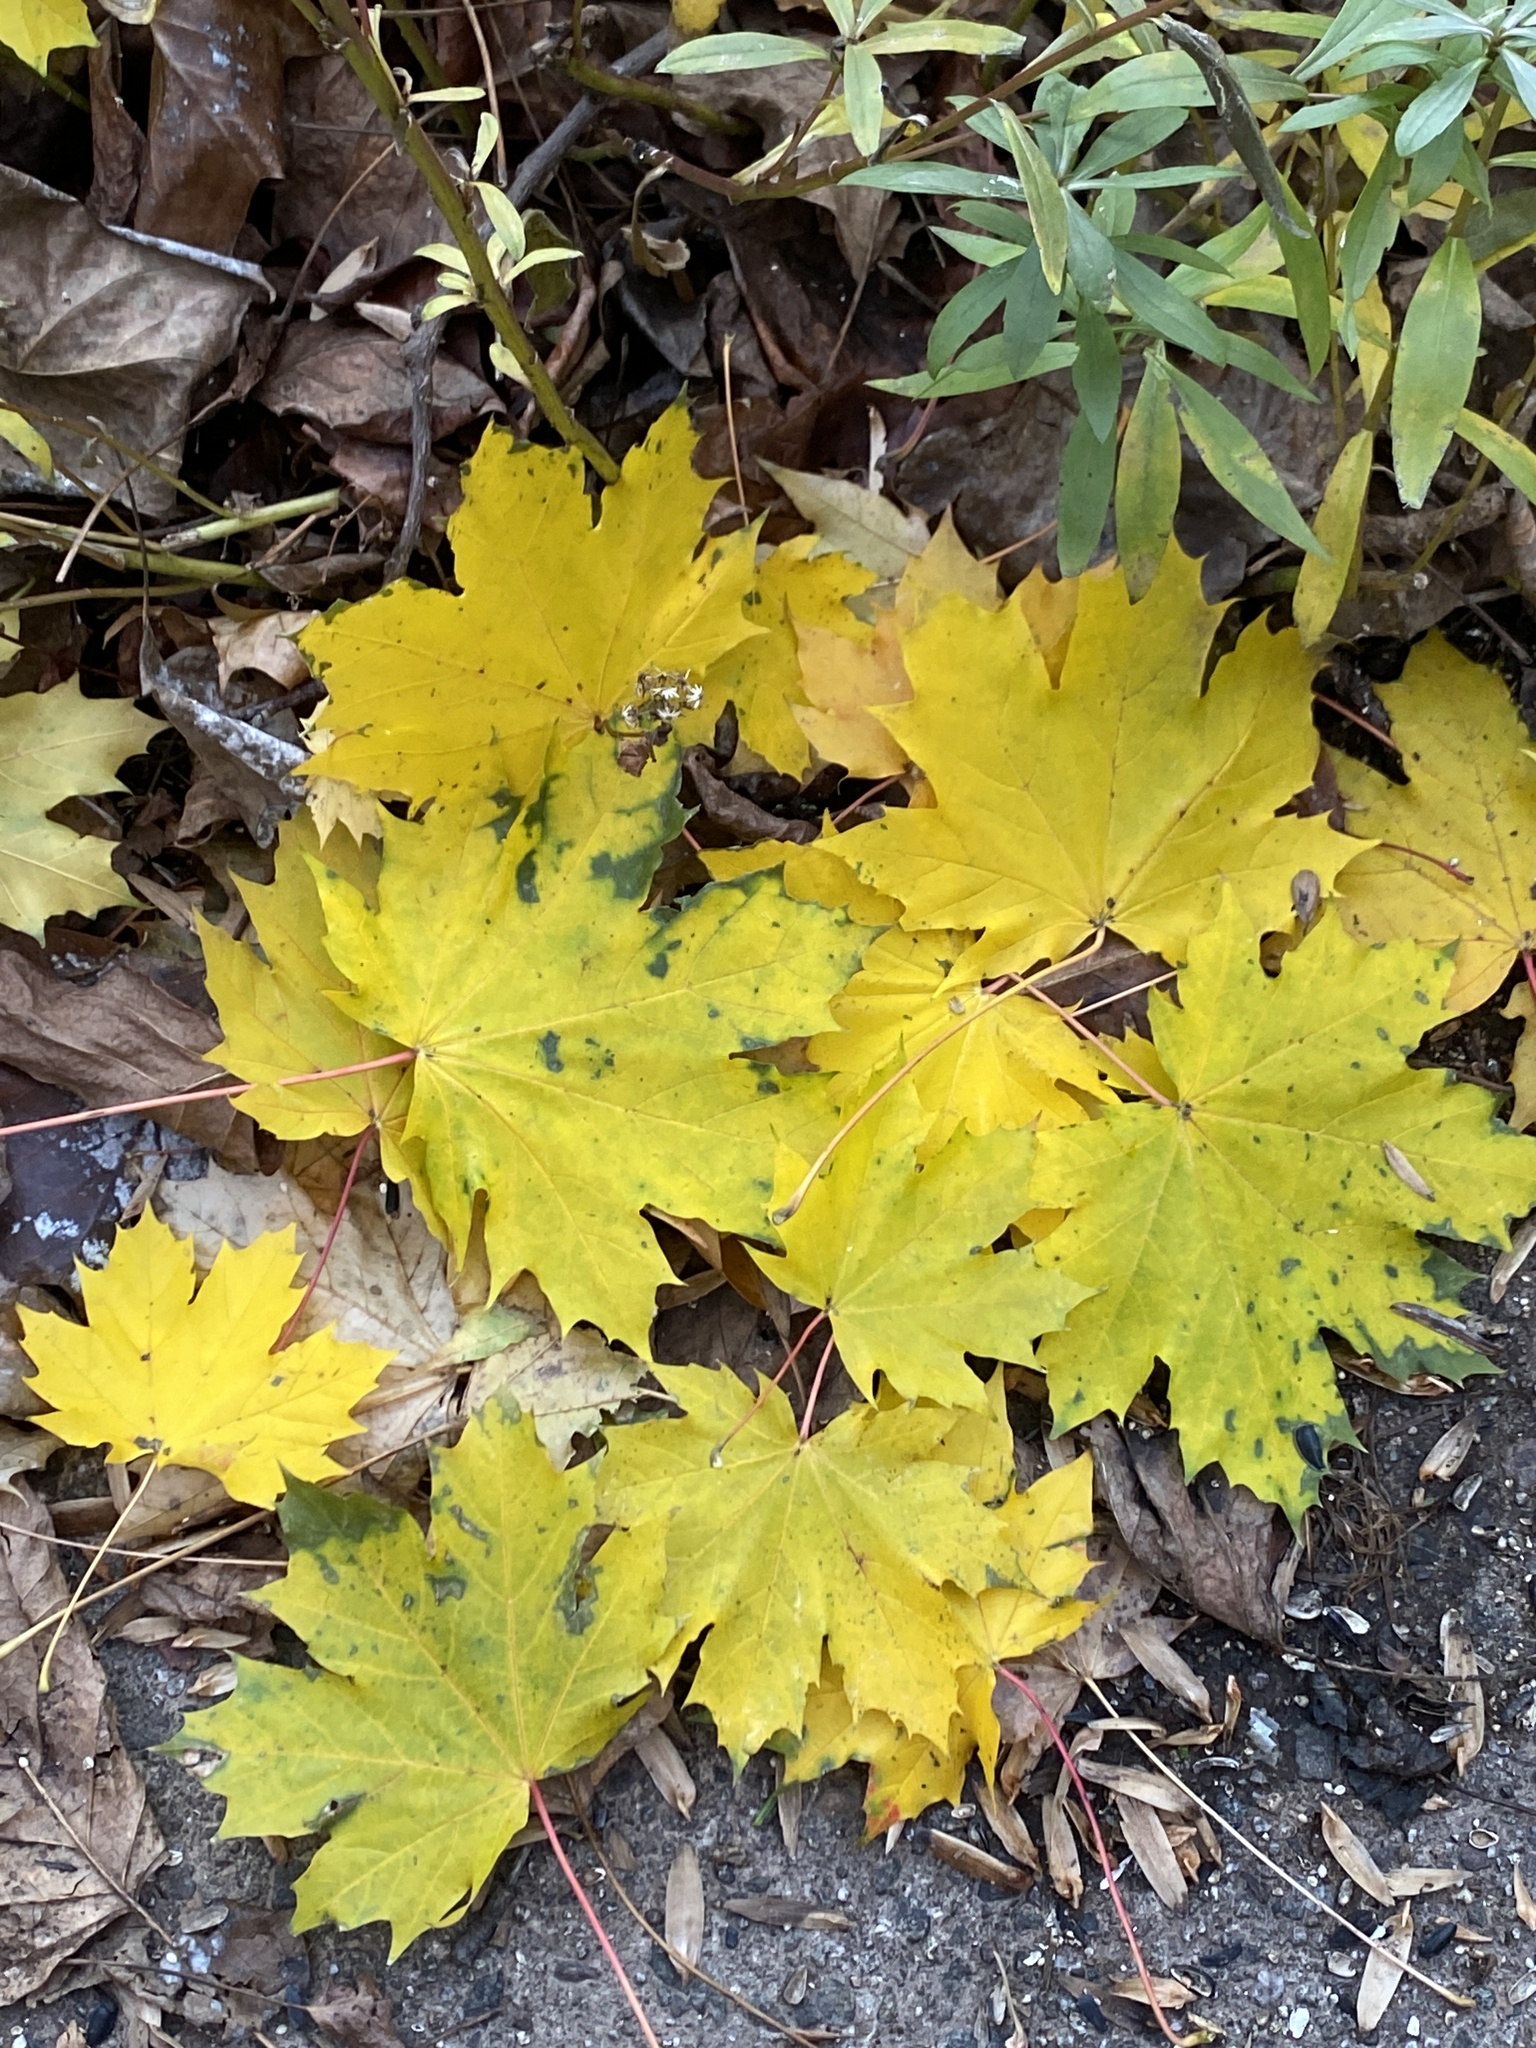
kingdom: Plantae
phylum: Tracheophyta
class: Magnoliopsida
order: Sapindales
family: Sapindaceae
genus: Acer
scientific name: Acer platanoides
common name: Norway maple
